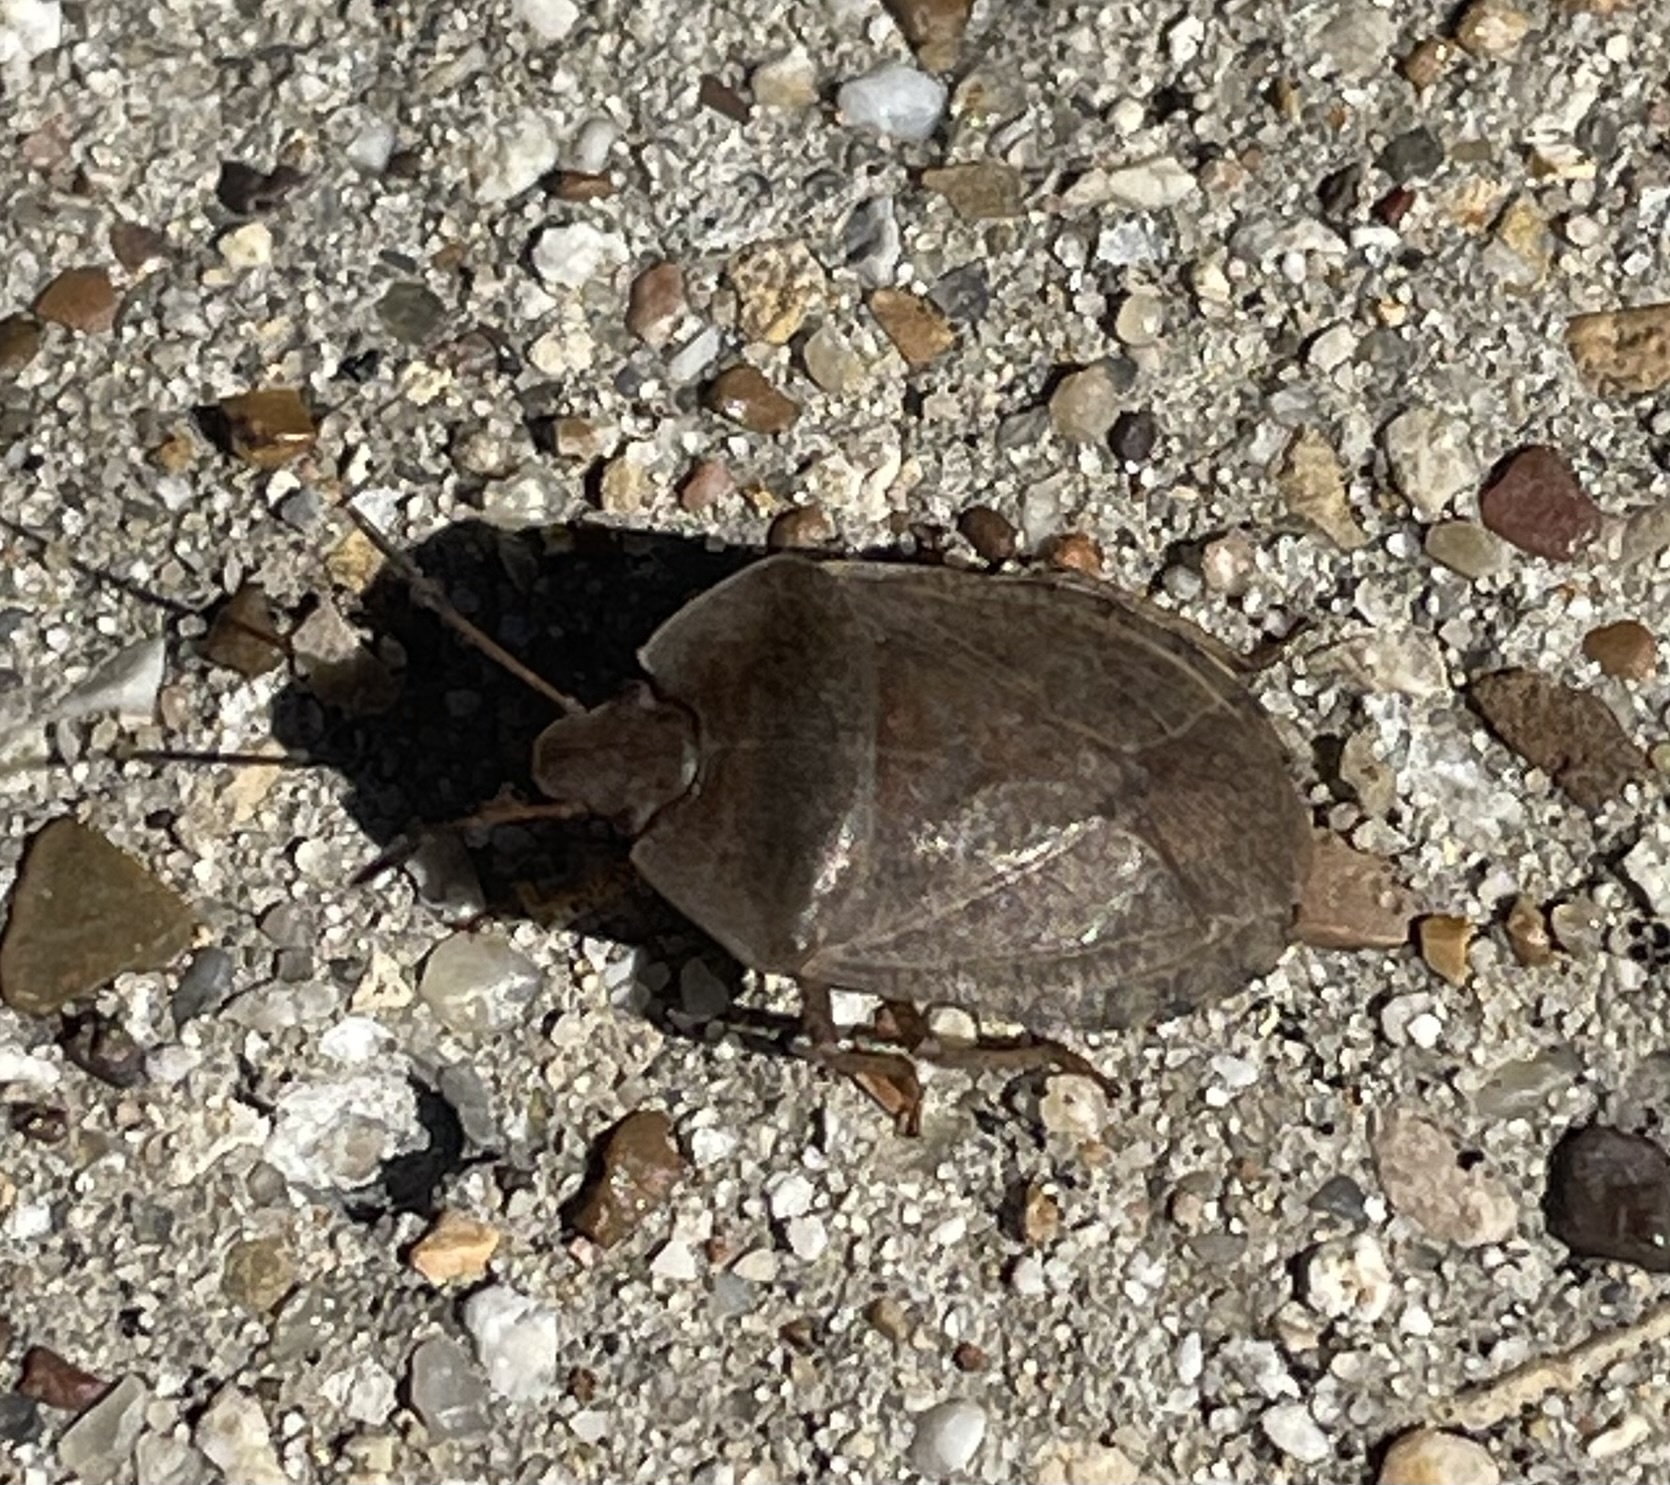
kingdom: Animalia
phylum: Arthropoda
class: Insecta
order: Hemiptera
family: Pentatomidae
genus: Menecles
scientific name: Menecles insertus
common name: Elf shoe stink bug
